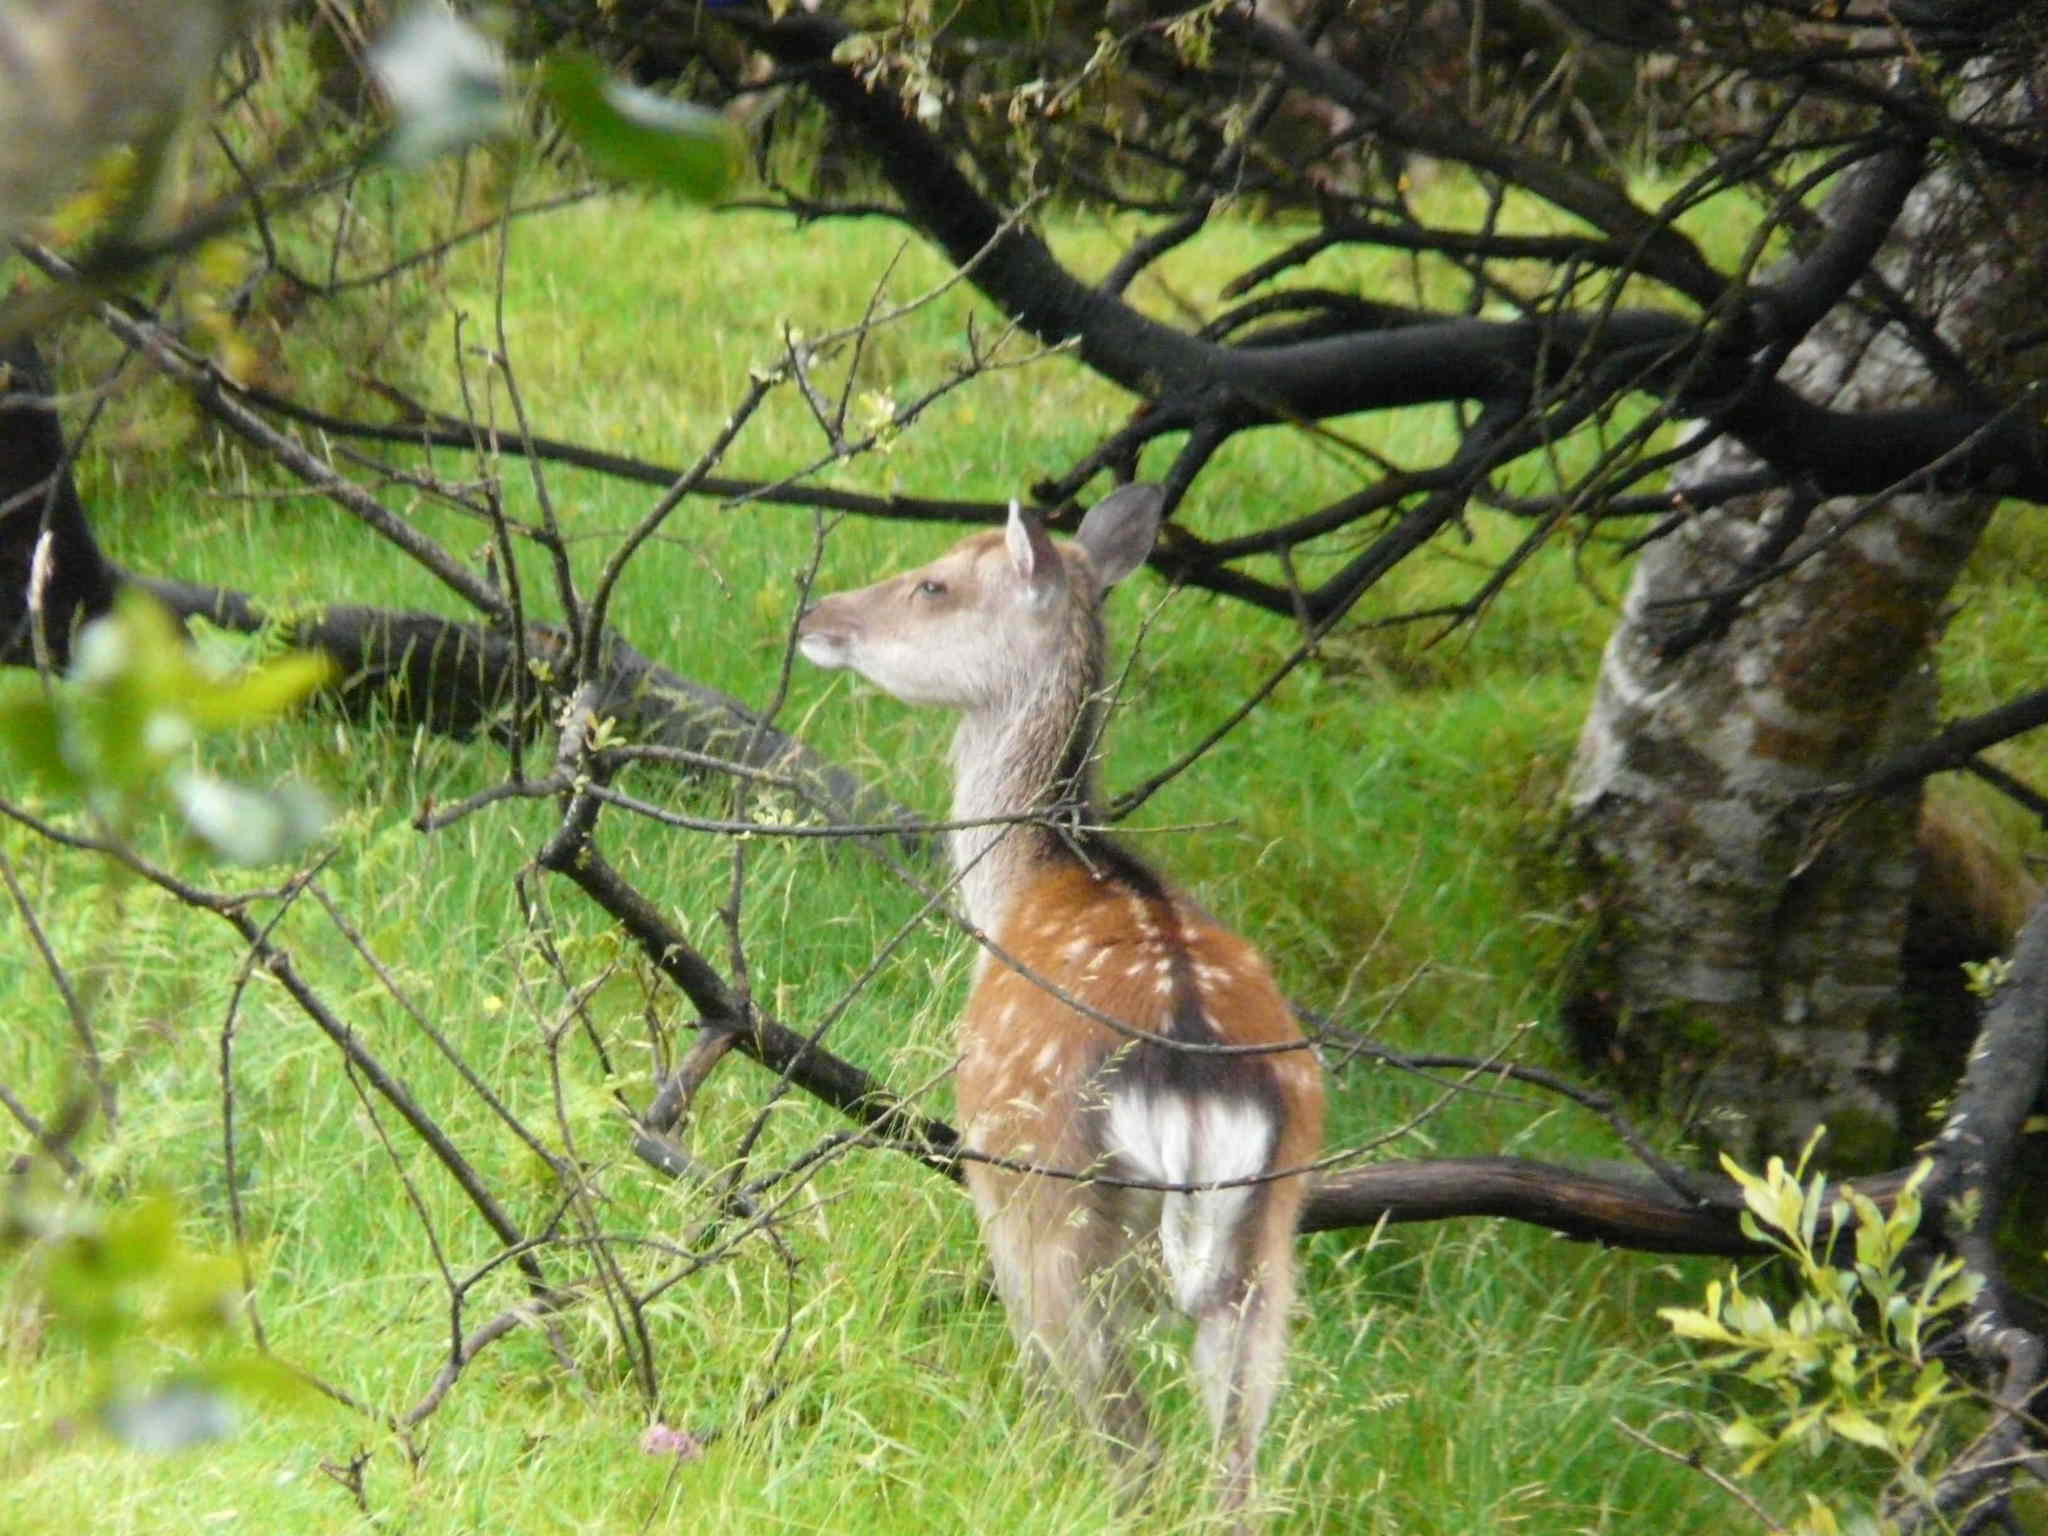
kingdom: Animalia
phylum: Chordata
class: Mammalia
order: Artiodactyla
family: Cervidae
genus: Cervus
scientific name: Cervus nippon
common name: Sika deer
